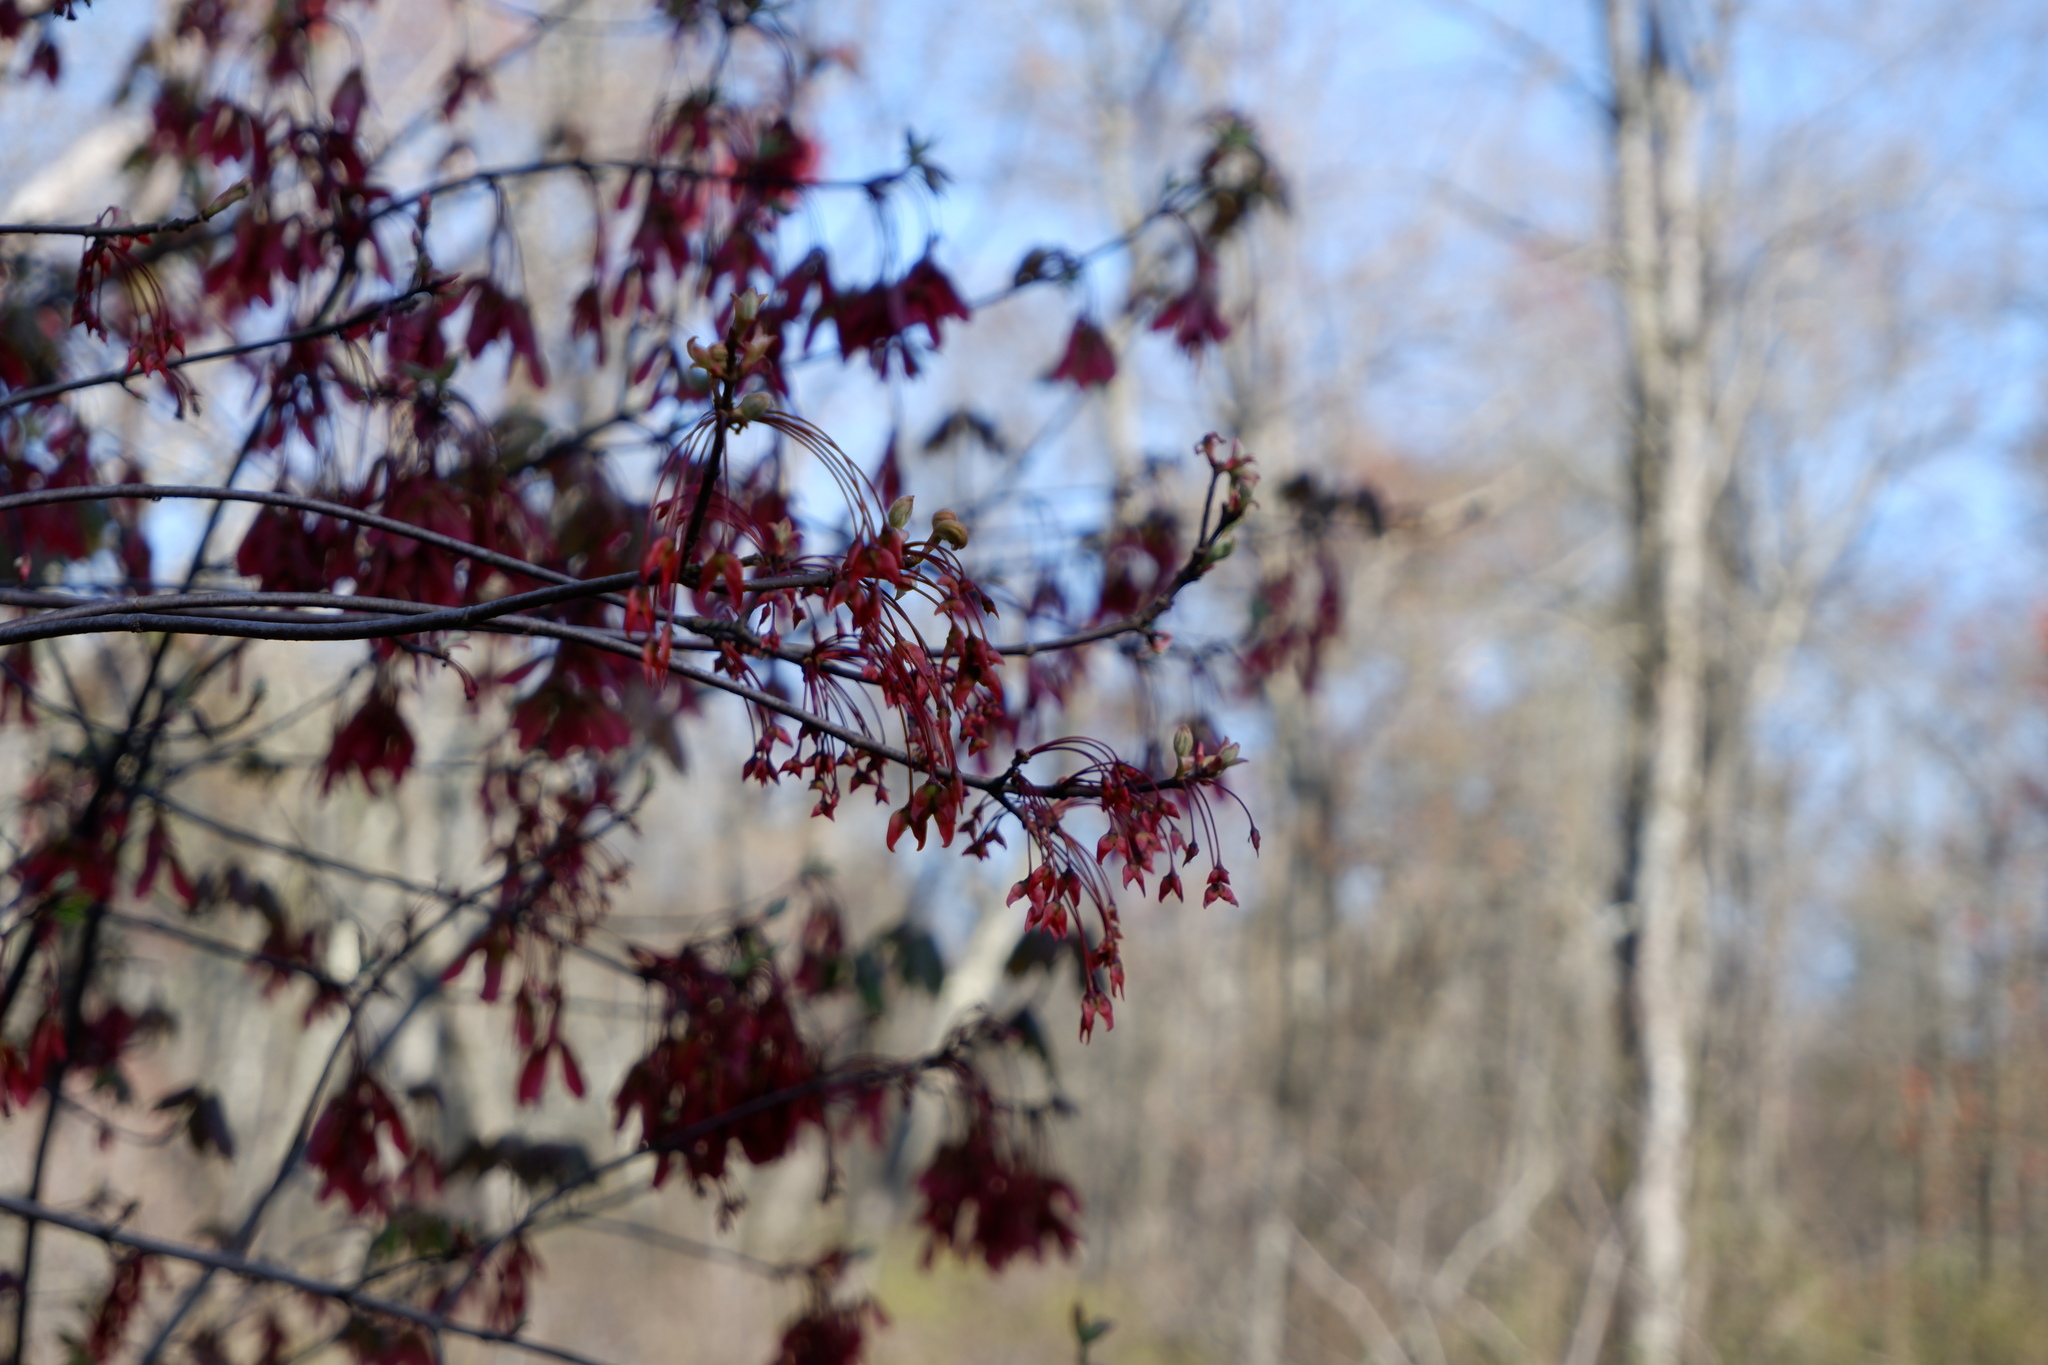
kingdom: Plantae
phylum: Tracheophyta
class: Magnoliopsida
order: Sapindales
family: Sapindaceae
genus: Acer
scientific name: Acer rubrum
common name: Red maple
